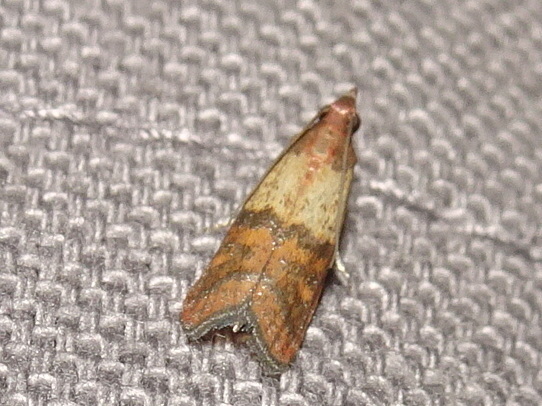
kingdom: Animalia
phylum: Arthropoda
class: Insecta
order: Lepidoptera
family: Pyralidae
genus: Plodia
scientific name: Plodia interpunctella
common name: Indian meal moth
